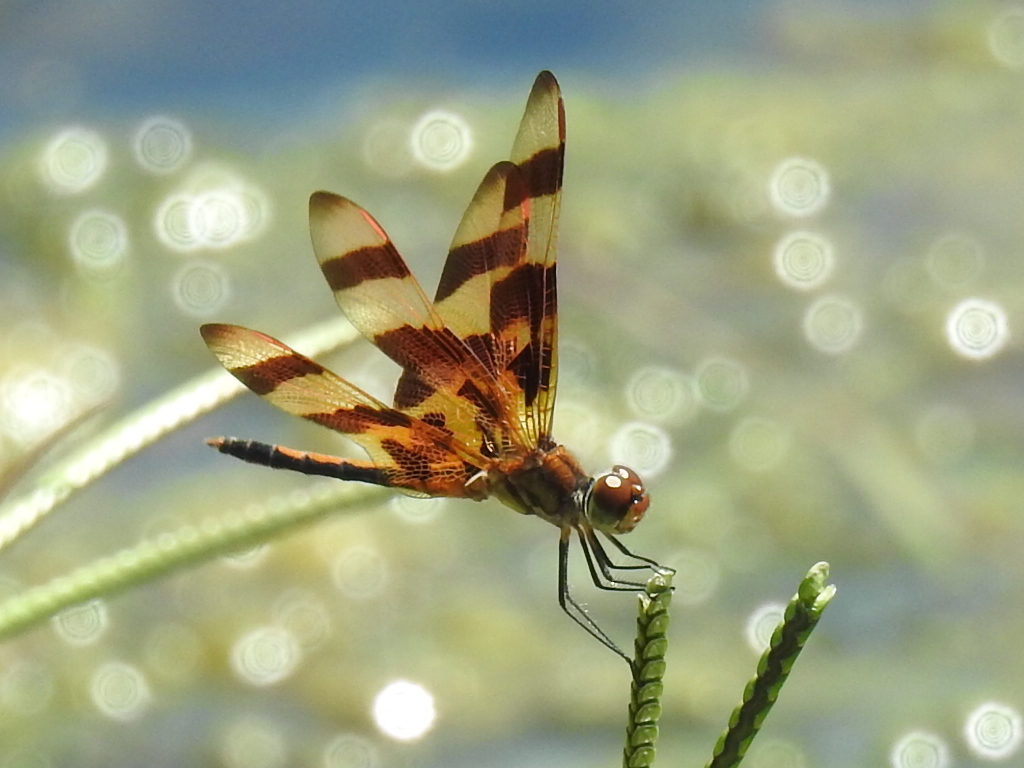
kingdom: Animalia
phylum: Arthropoda
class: Insecta
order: Odonata
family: Libellulidae
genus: Celithemis
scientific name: Celithemis eponina
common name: Halloween pennant
